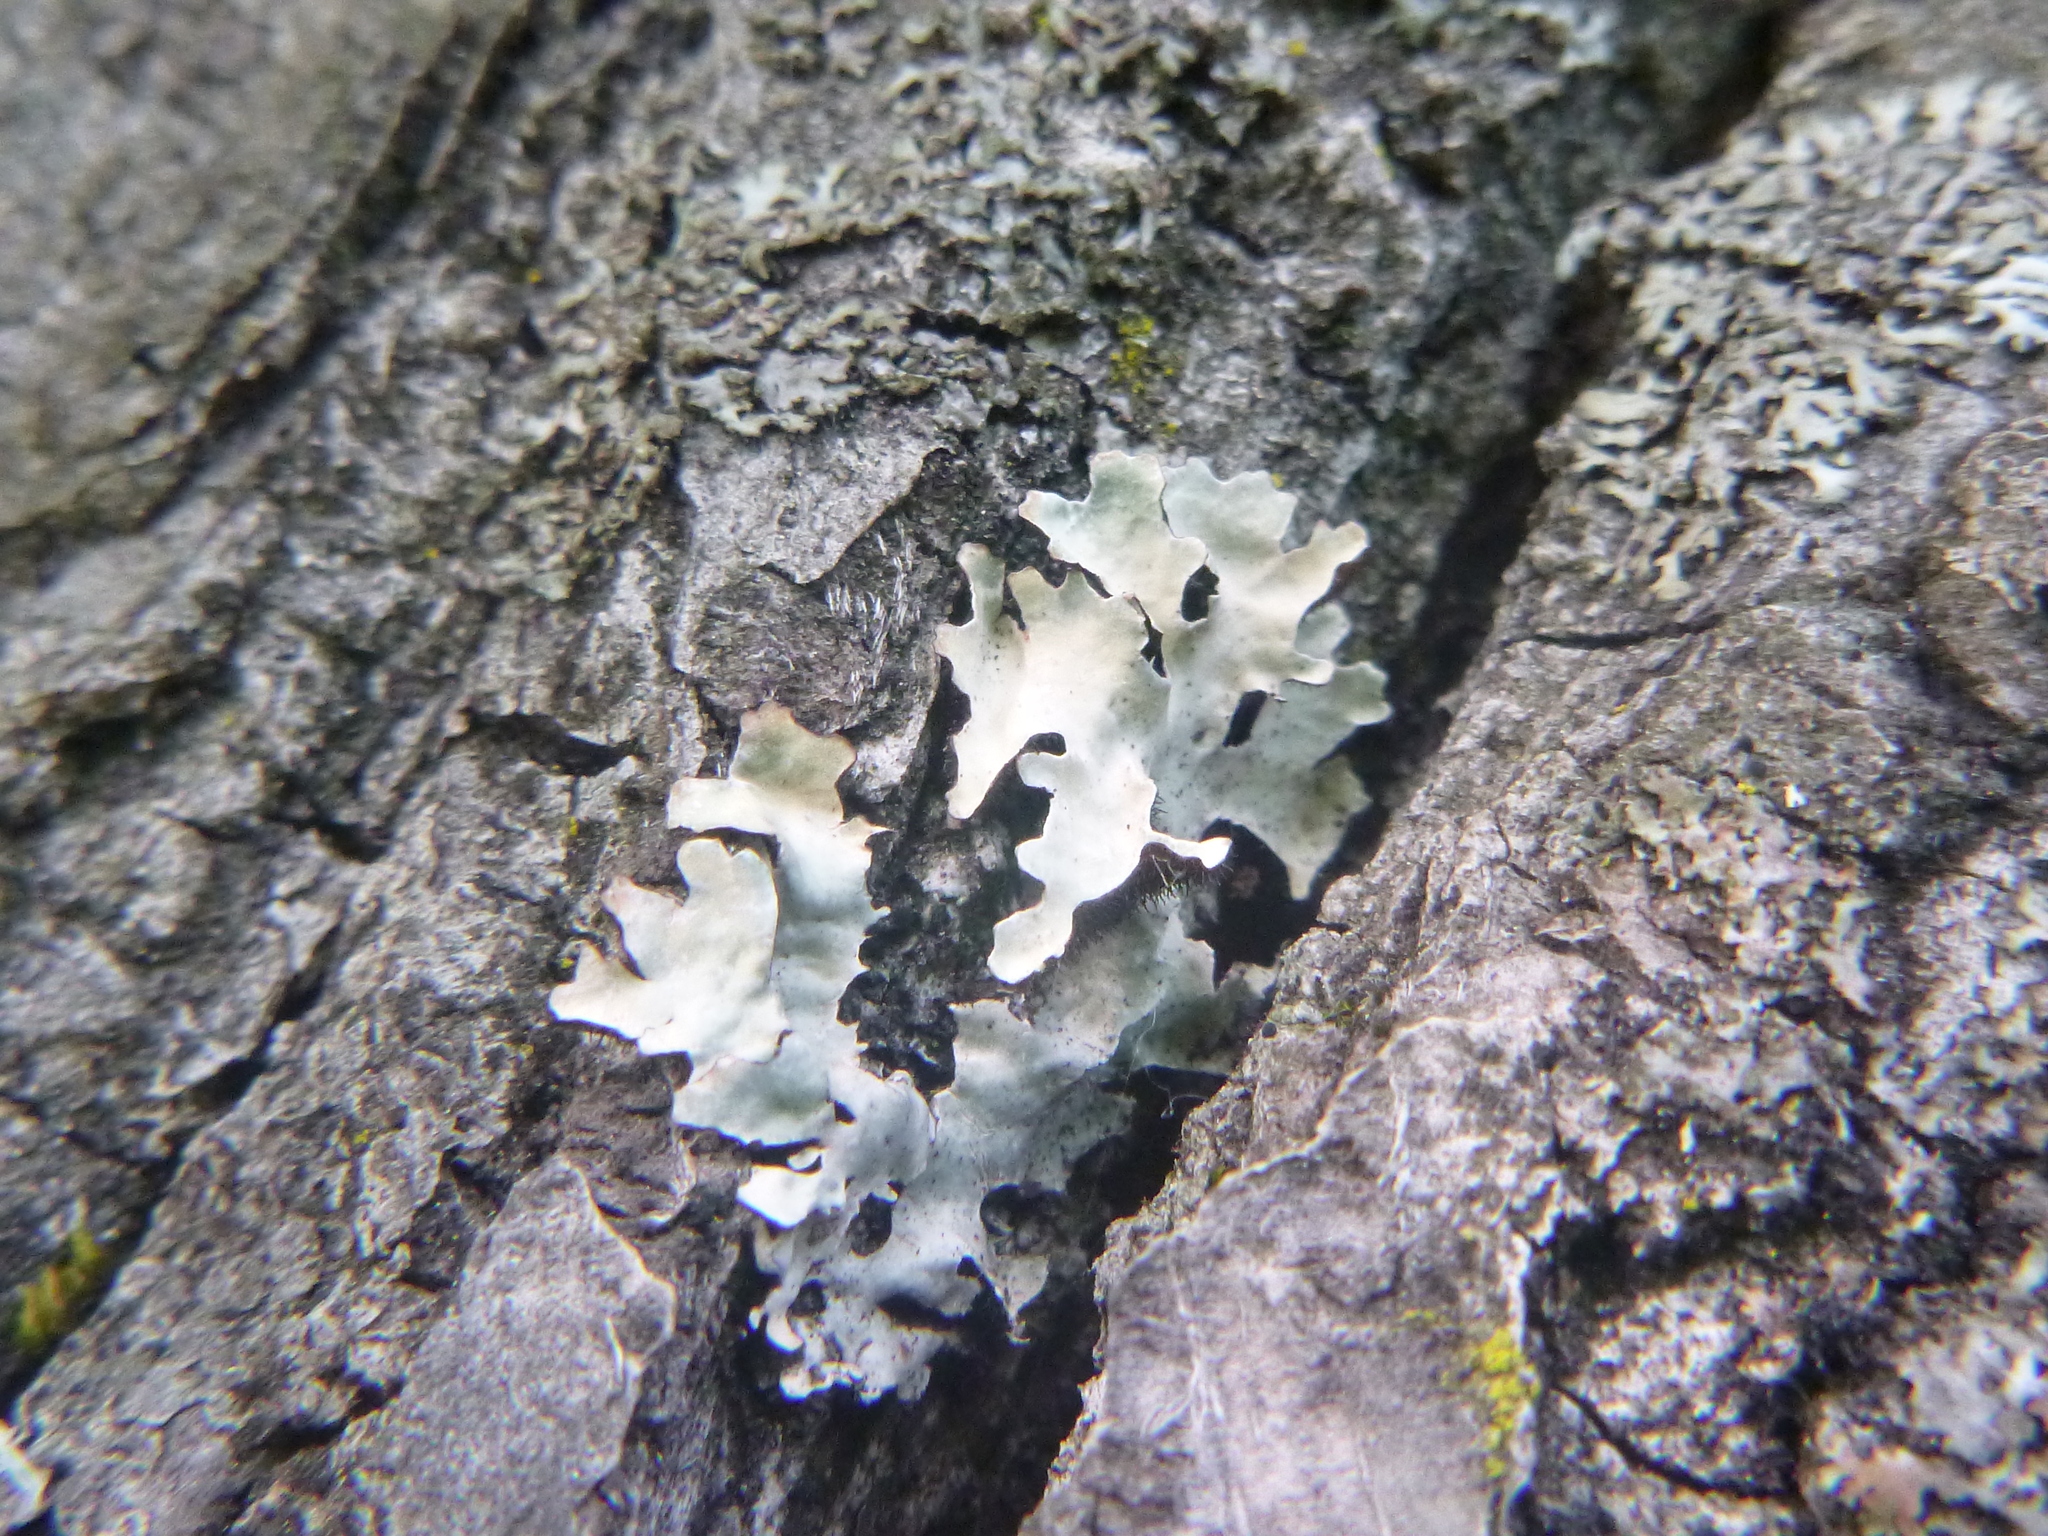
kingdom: Fungi
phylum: Ascomycota
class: Lecanoromycetes
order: Lecanorales
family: Parmeliaceae
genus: Parmelia
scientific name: Parmelia sulcata
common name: Netted shield lichen
